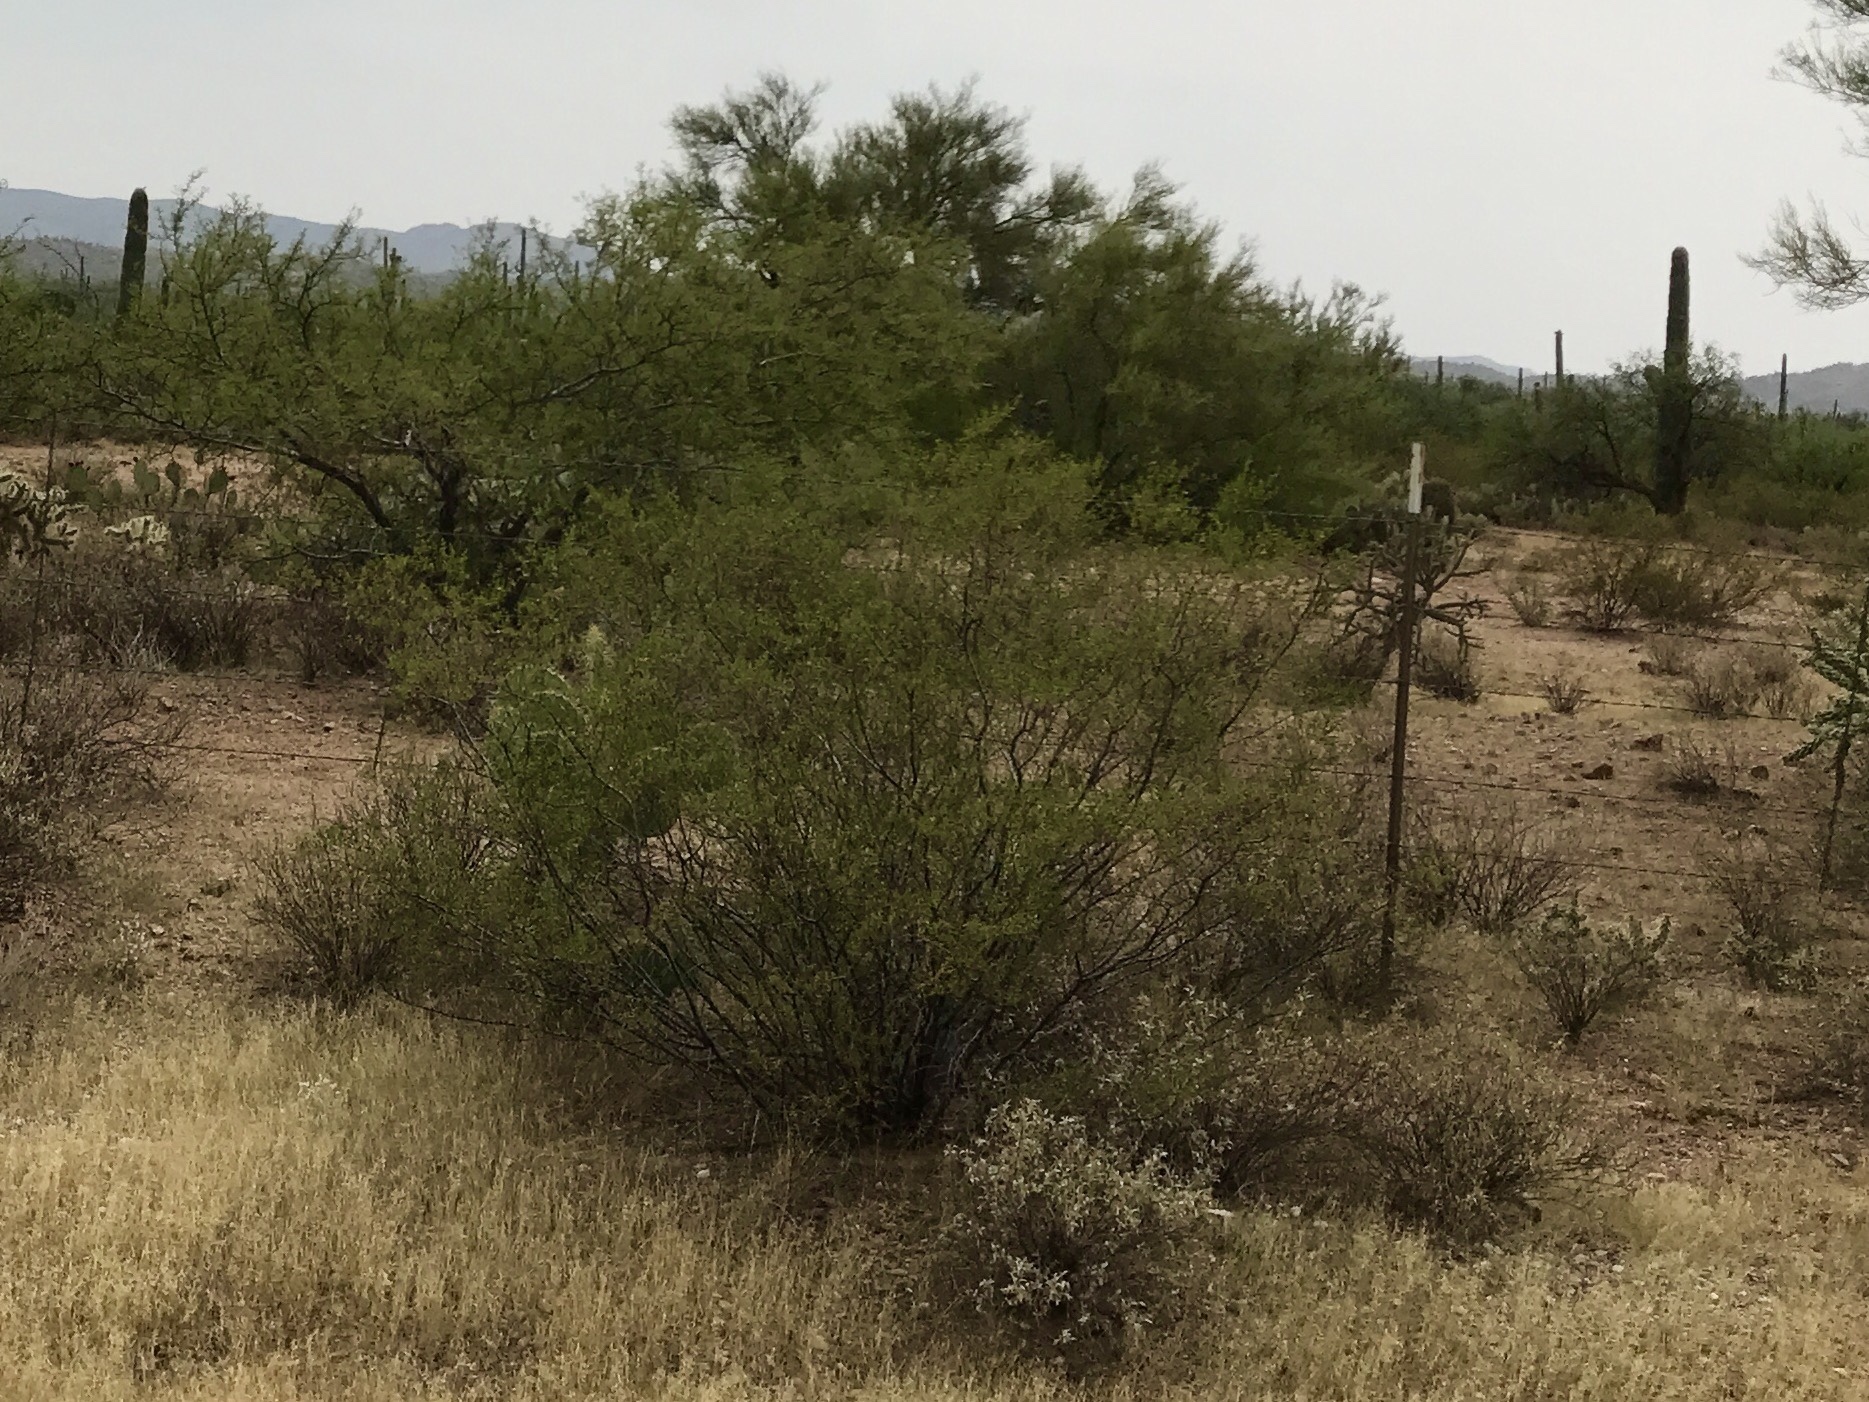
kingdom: Plantae
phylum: Tracheophyta
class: Magnoliopsida
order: Zygophyllales
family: Zygophyllaceae
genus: Larrea
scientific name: Larrea tridentata
